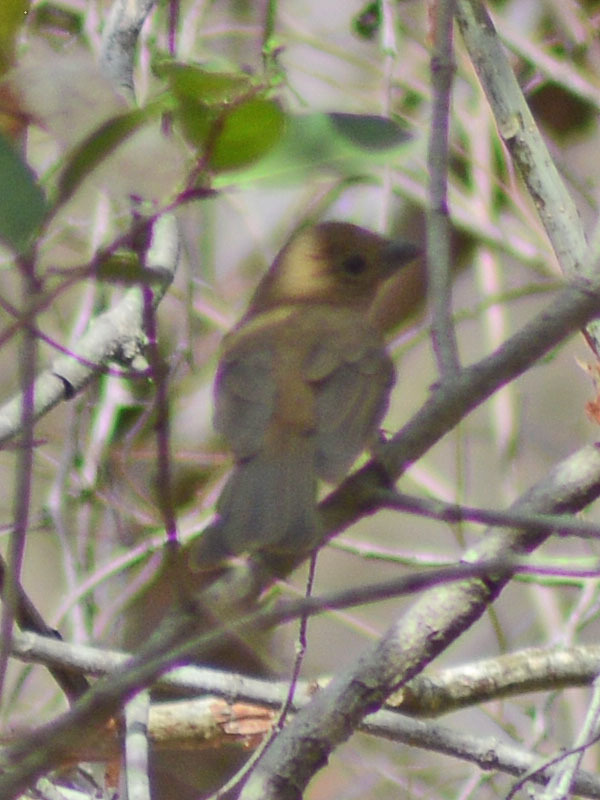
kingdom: Animalia
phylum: Chordata
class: Aves
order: Passeriformes
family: Cardinalidae
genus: Passerina
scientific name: Passerina versicolor
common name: Varied bunting
